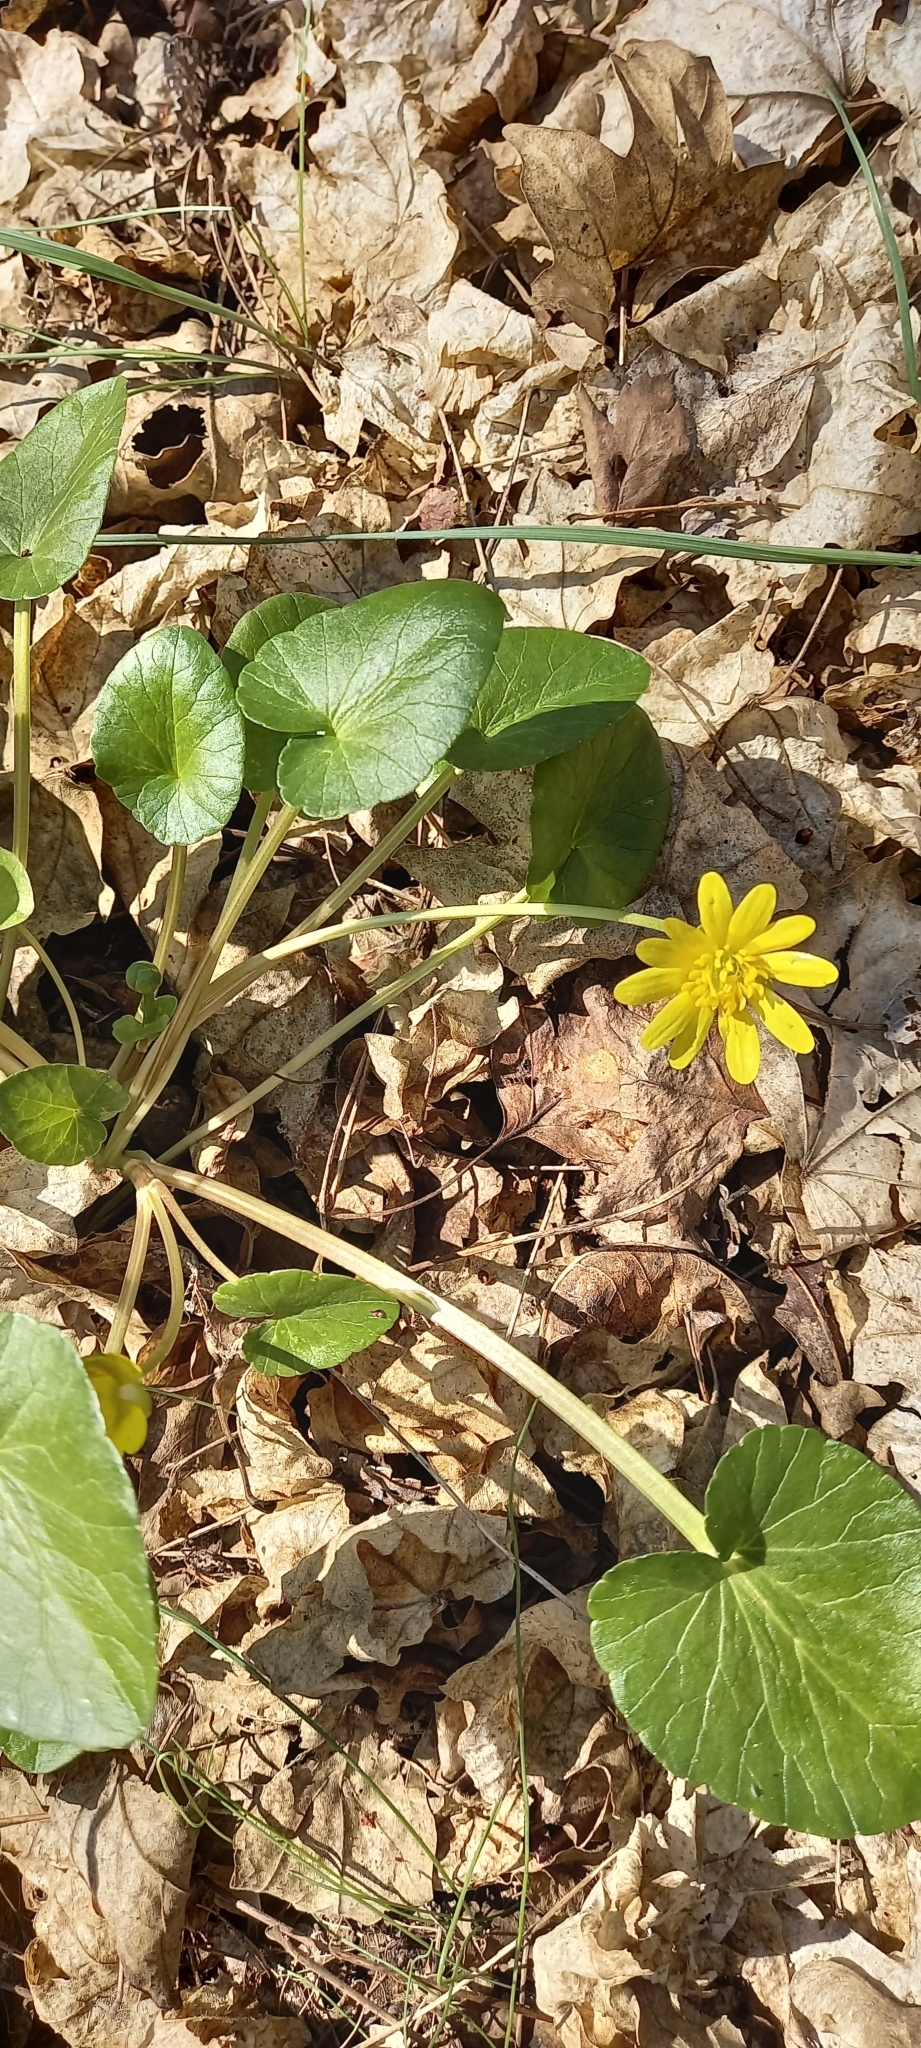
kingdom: Plantae
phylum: Tracheophyta
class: Magnoliopsida
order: Ranunculales
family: Ranunculaceae
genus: Ficaria
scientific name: Ficaria verna
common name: Lesser celandine
